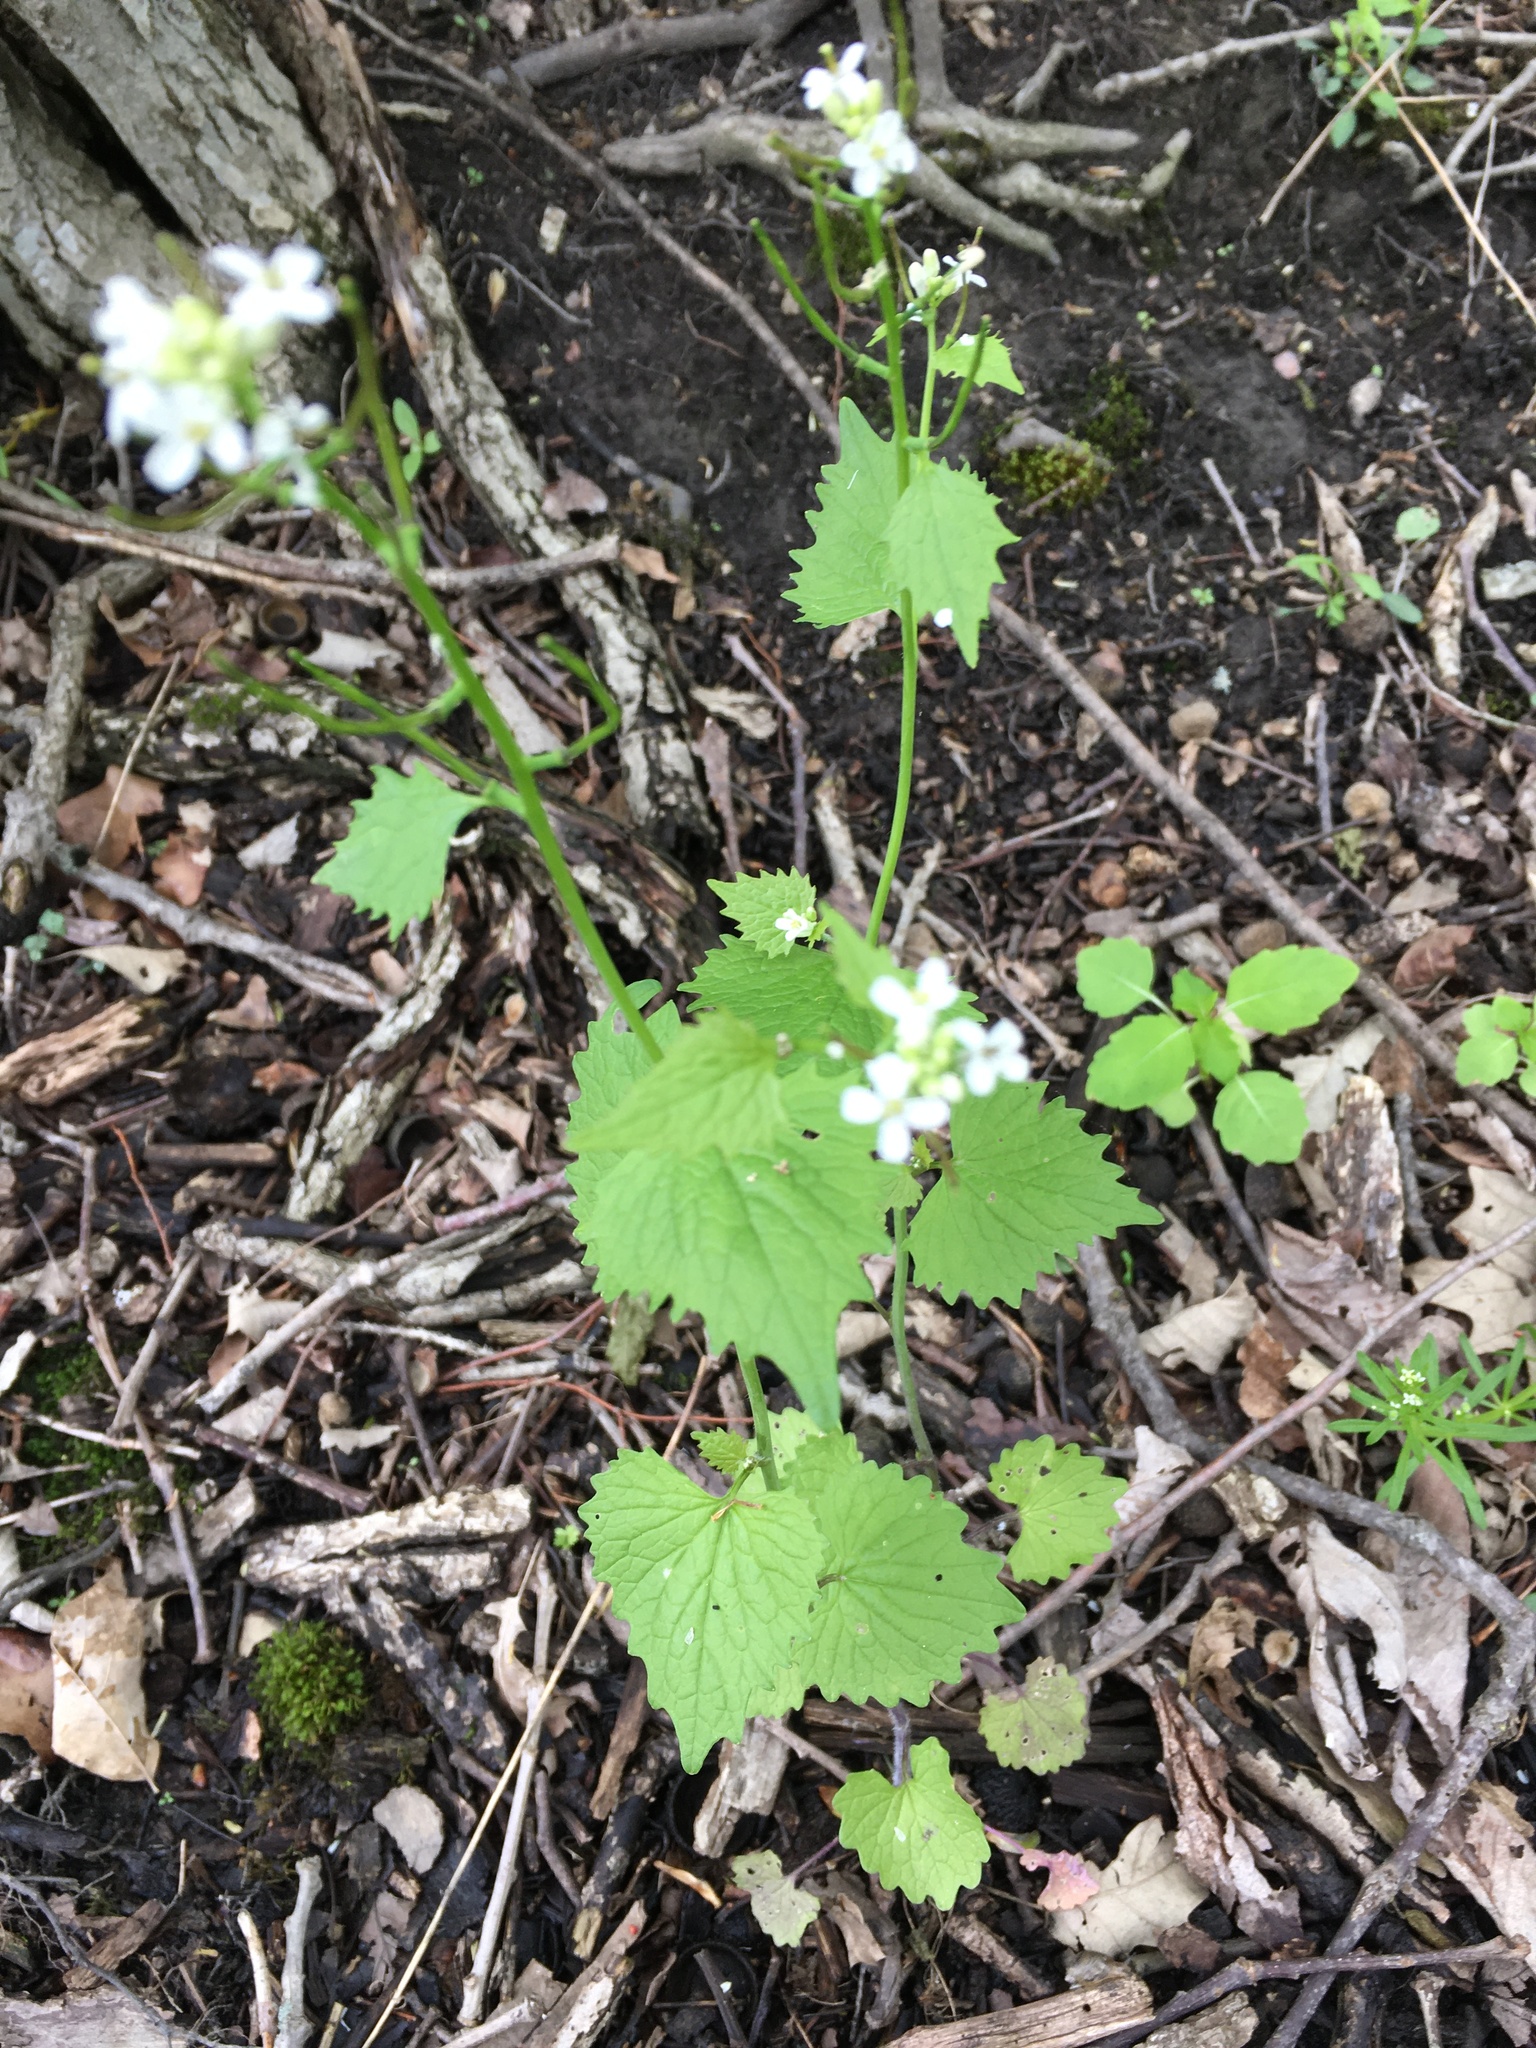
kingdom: Plantae
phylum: Tracheophyta
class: Magnoliopsida
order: Brassicales
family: Brassicaceae
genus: Alliaria
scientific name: Alliaria petiolata
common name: Garlic mustard
